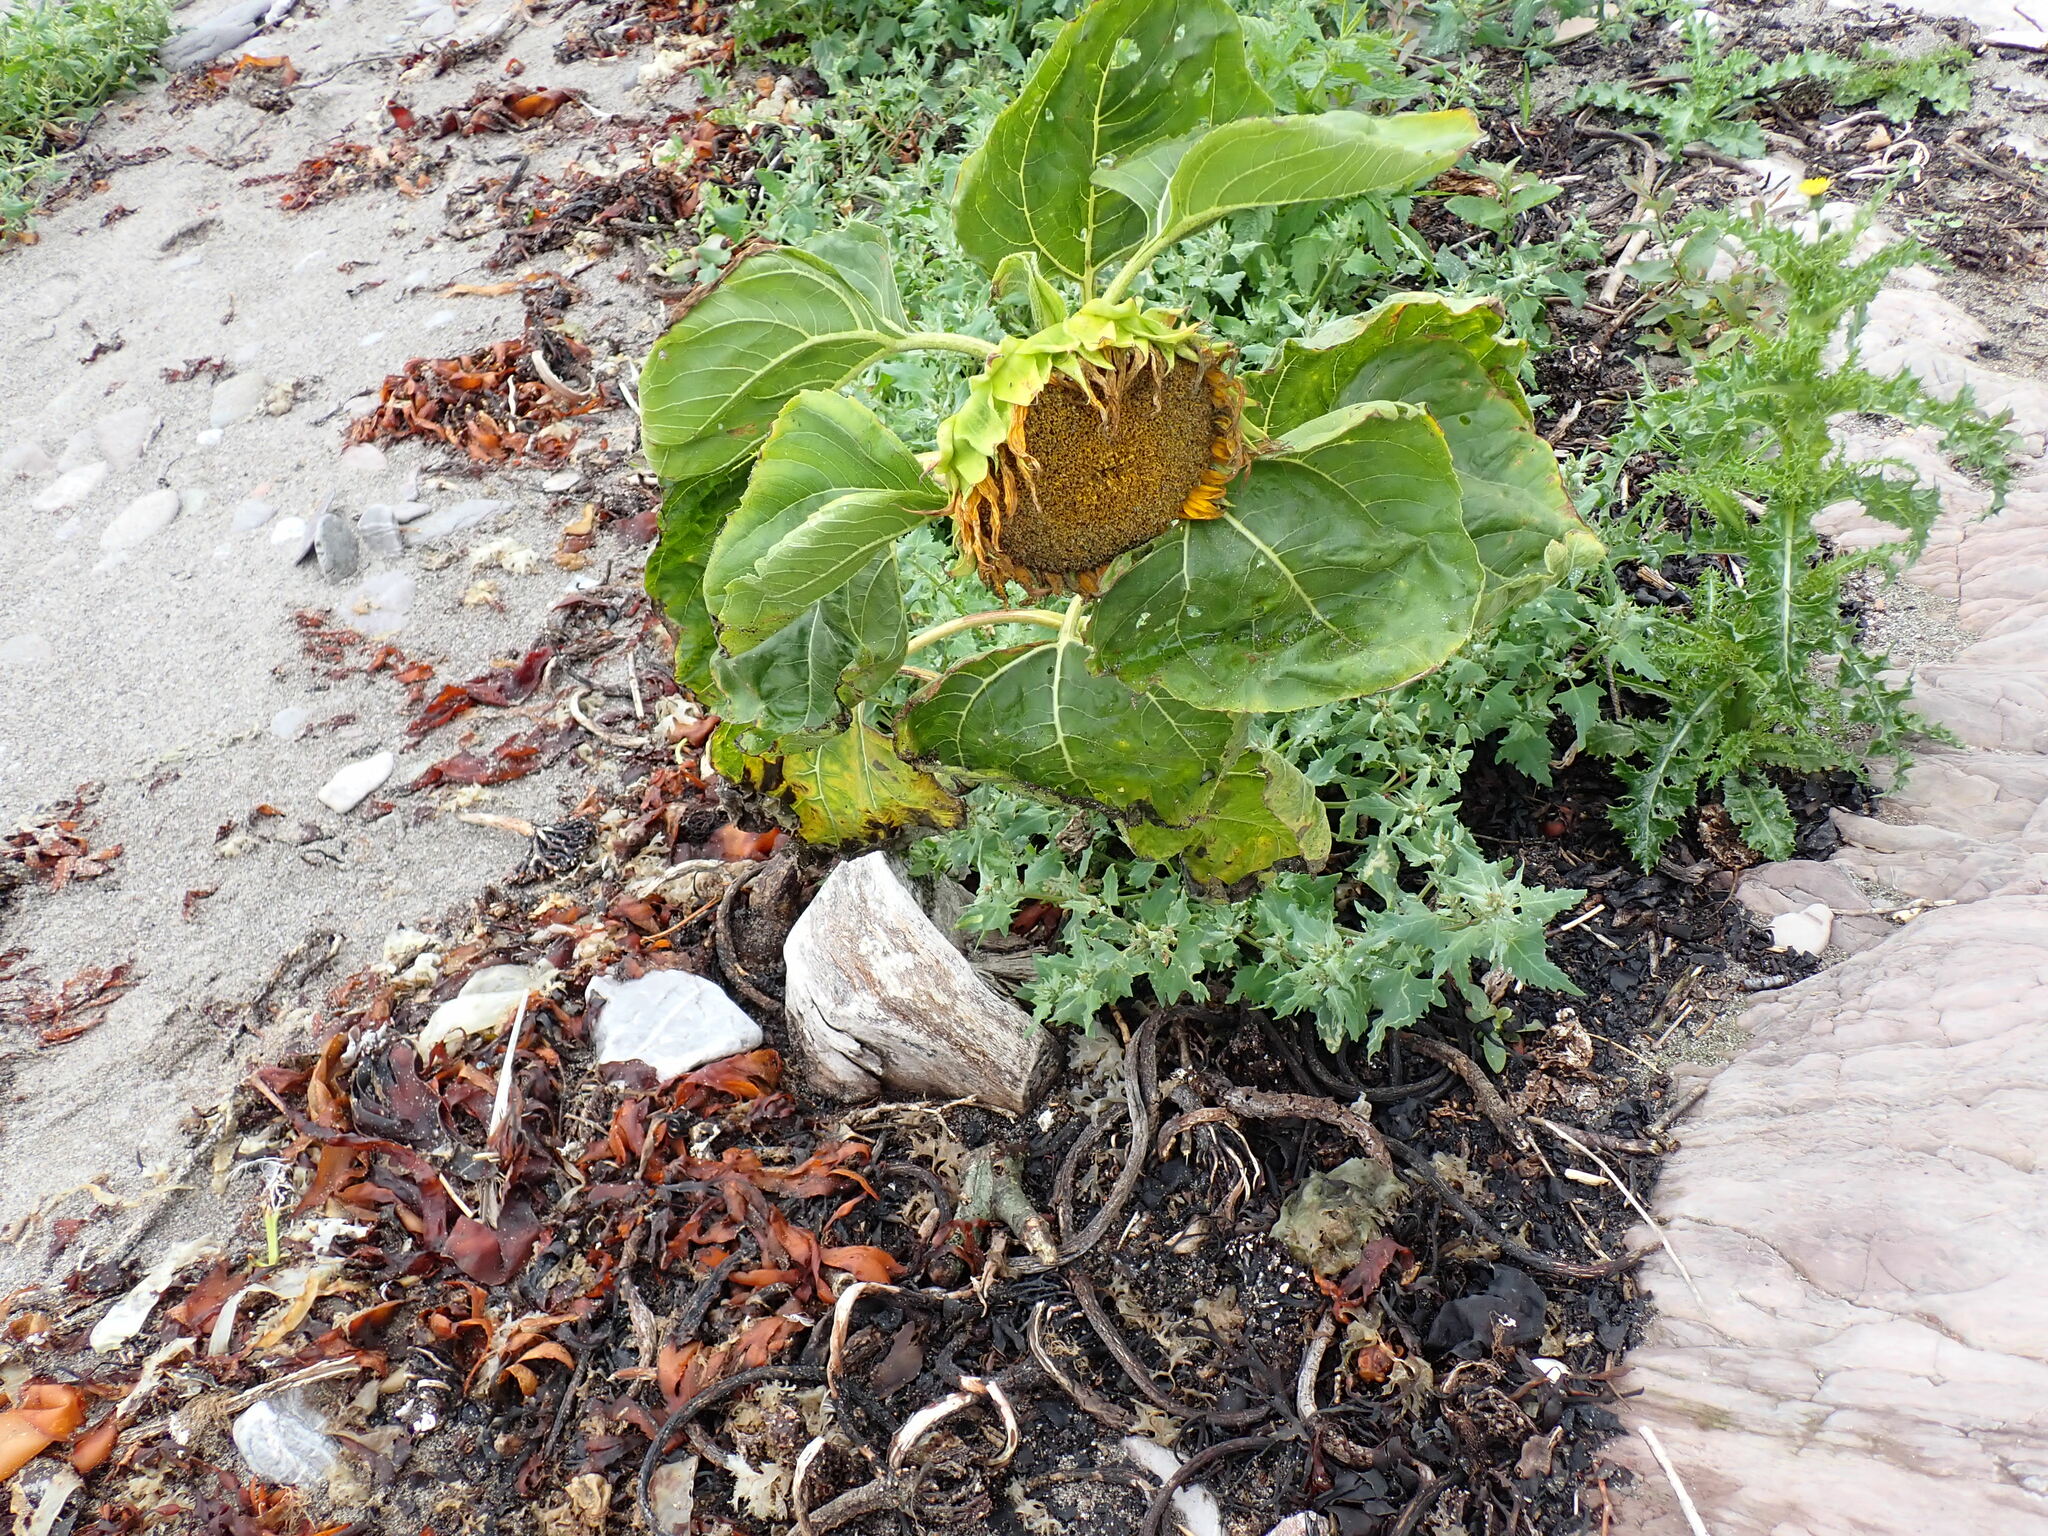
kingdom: Plantae
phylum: Tracheophyta
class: Magnoliopsida
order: Asterales
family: Asteraceae
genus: Helianthus
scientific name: Helianthus annuus
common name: Sunflower
